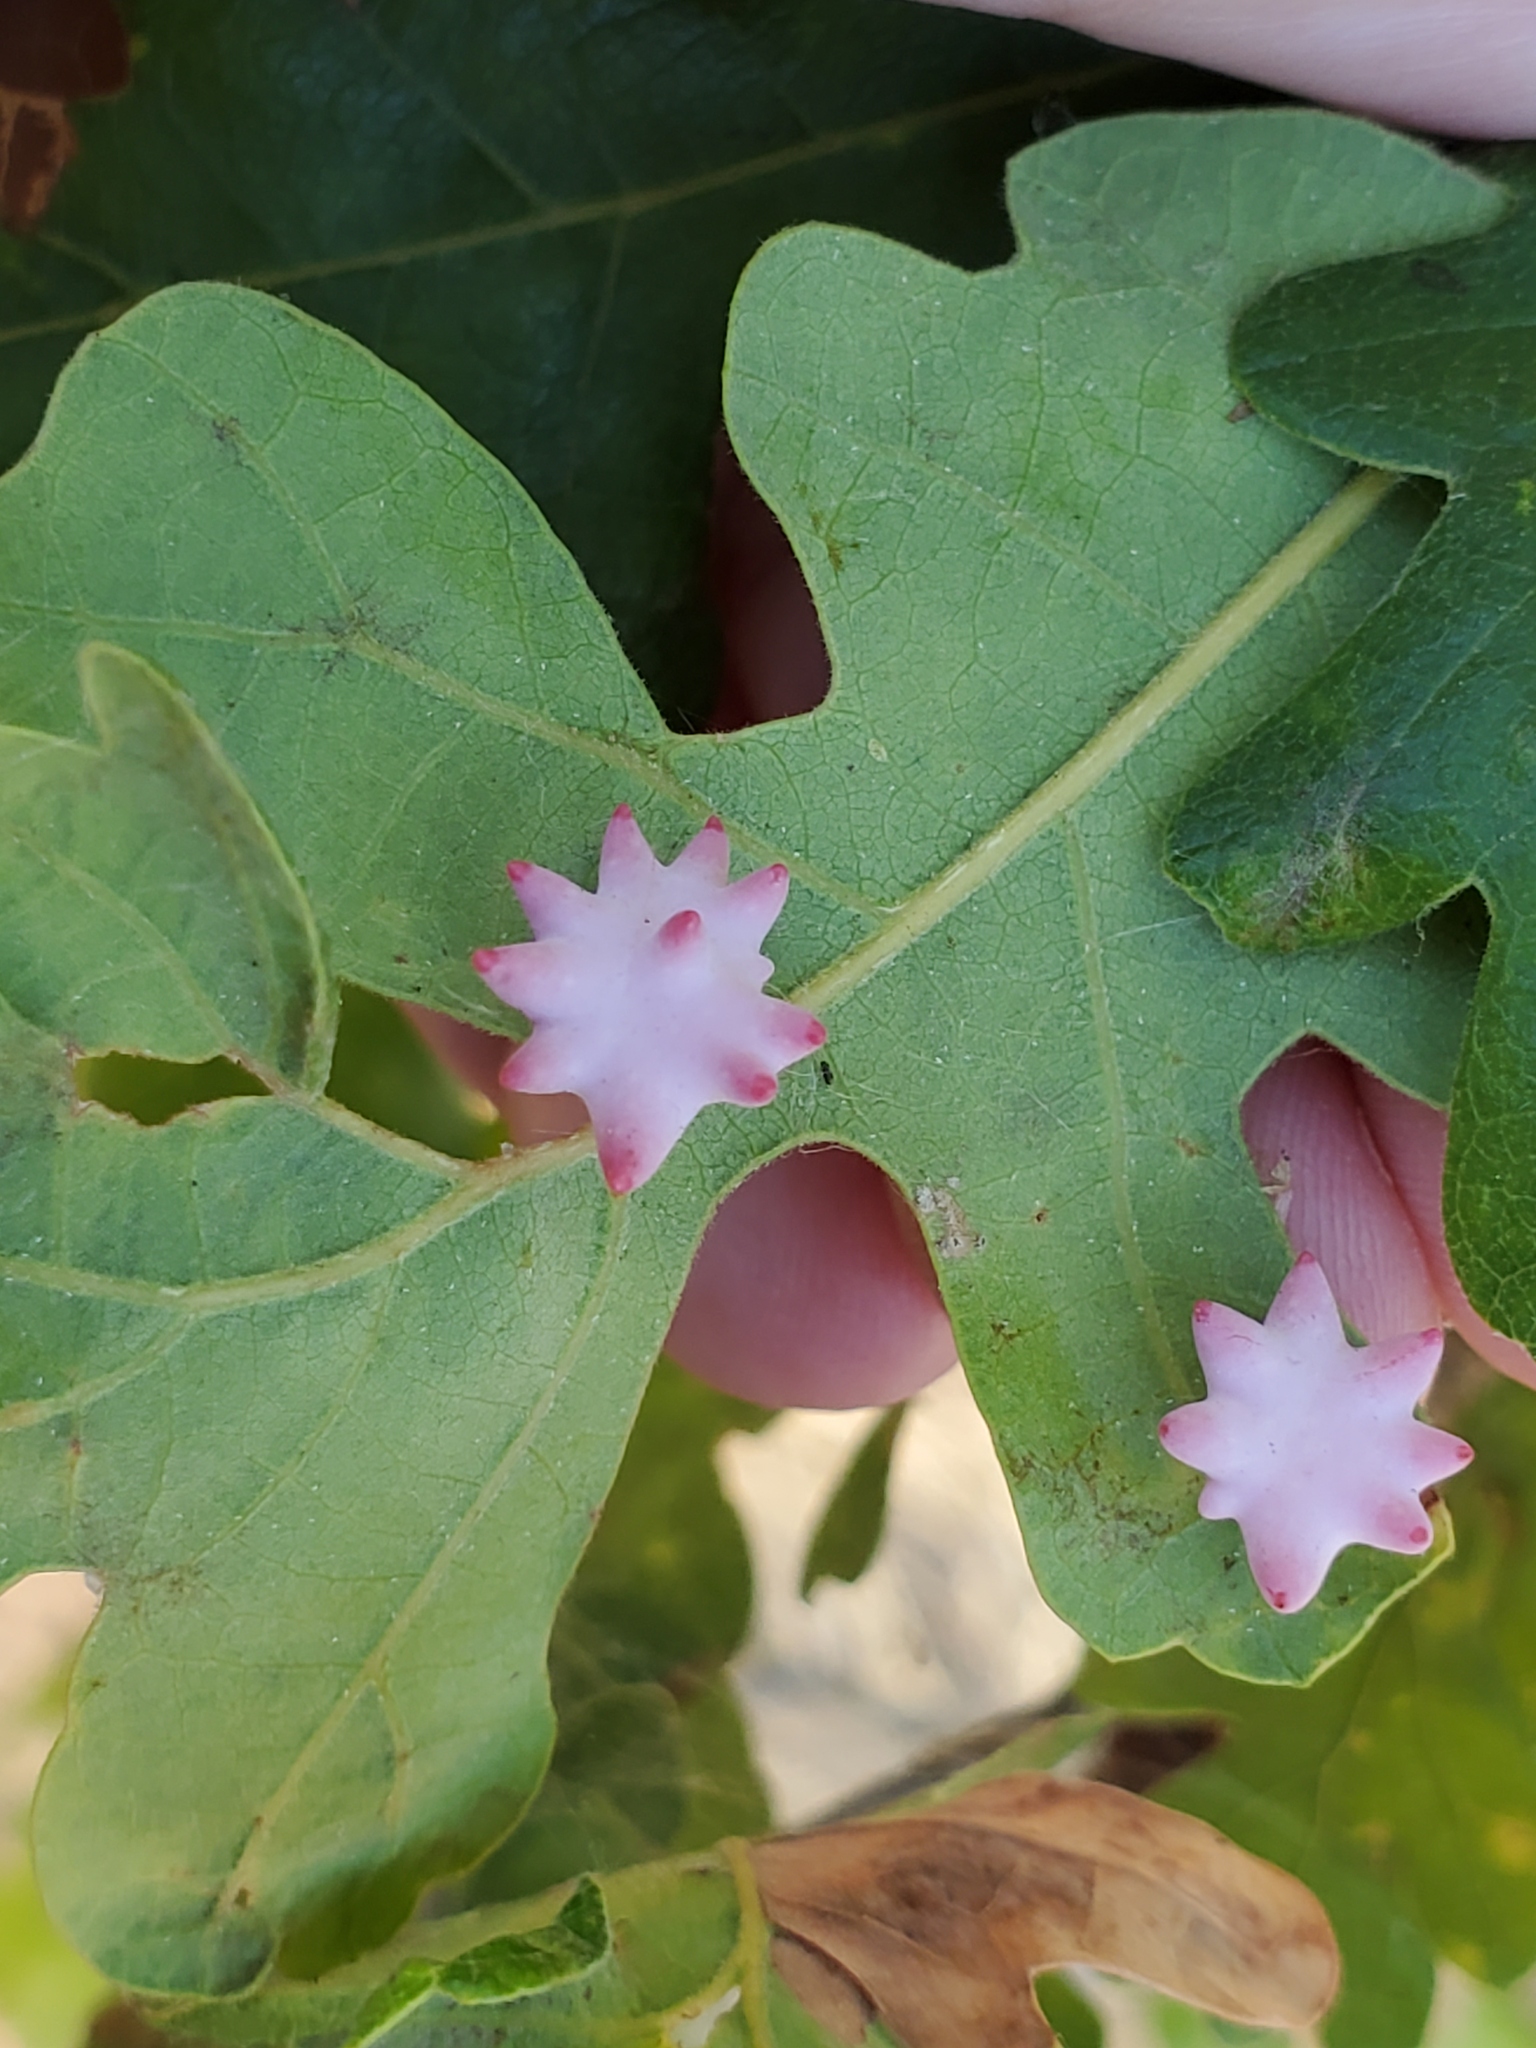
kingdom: Animalia
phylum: Arthropoda
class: Insecta
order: Hymenoptera
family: Cynipidae
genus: Cynips
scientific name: Cynips douglasi
